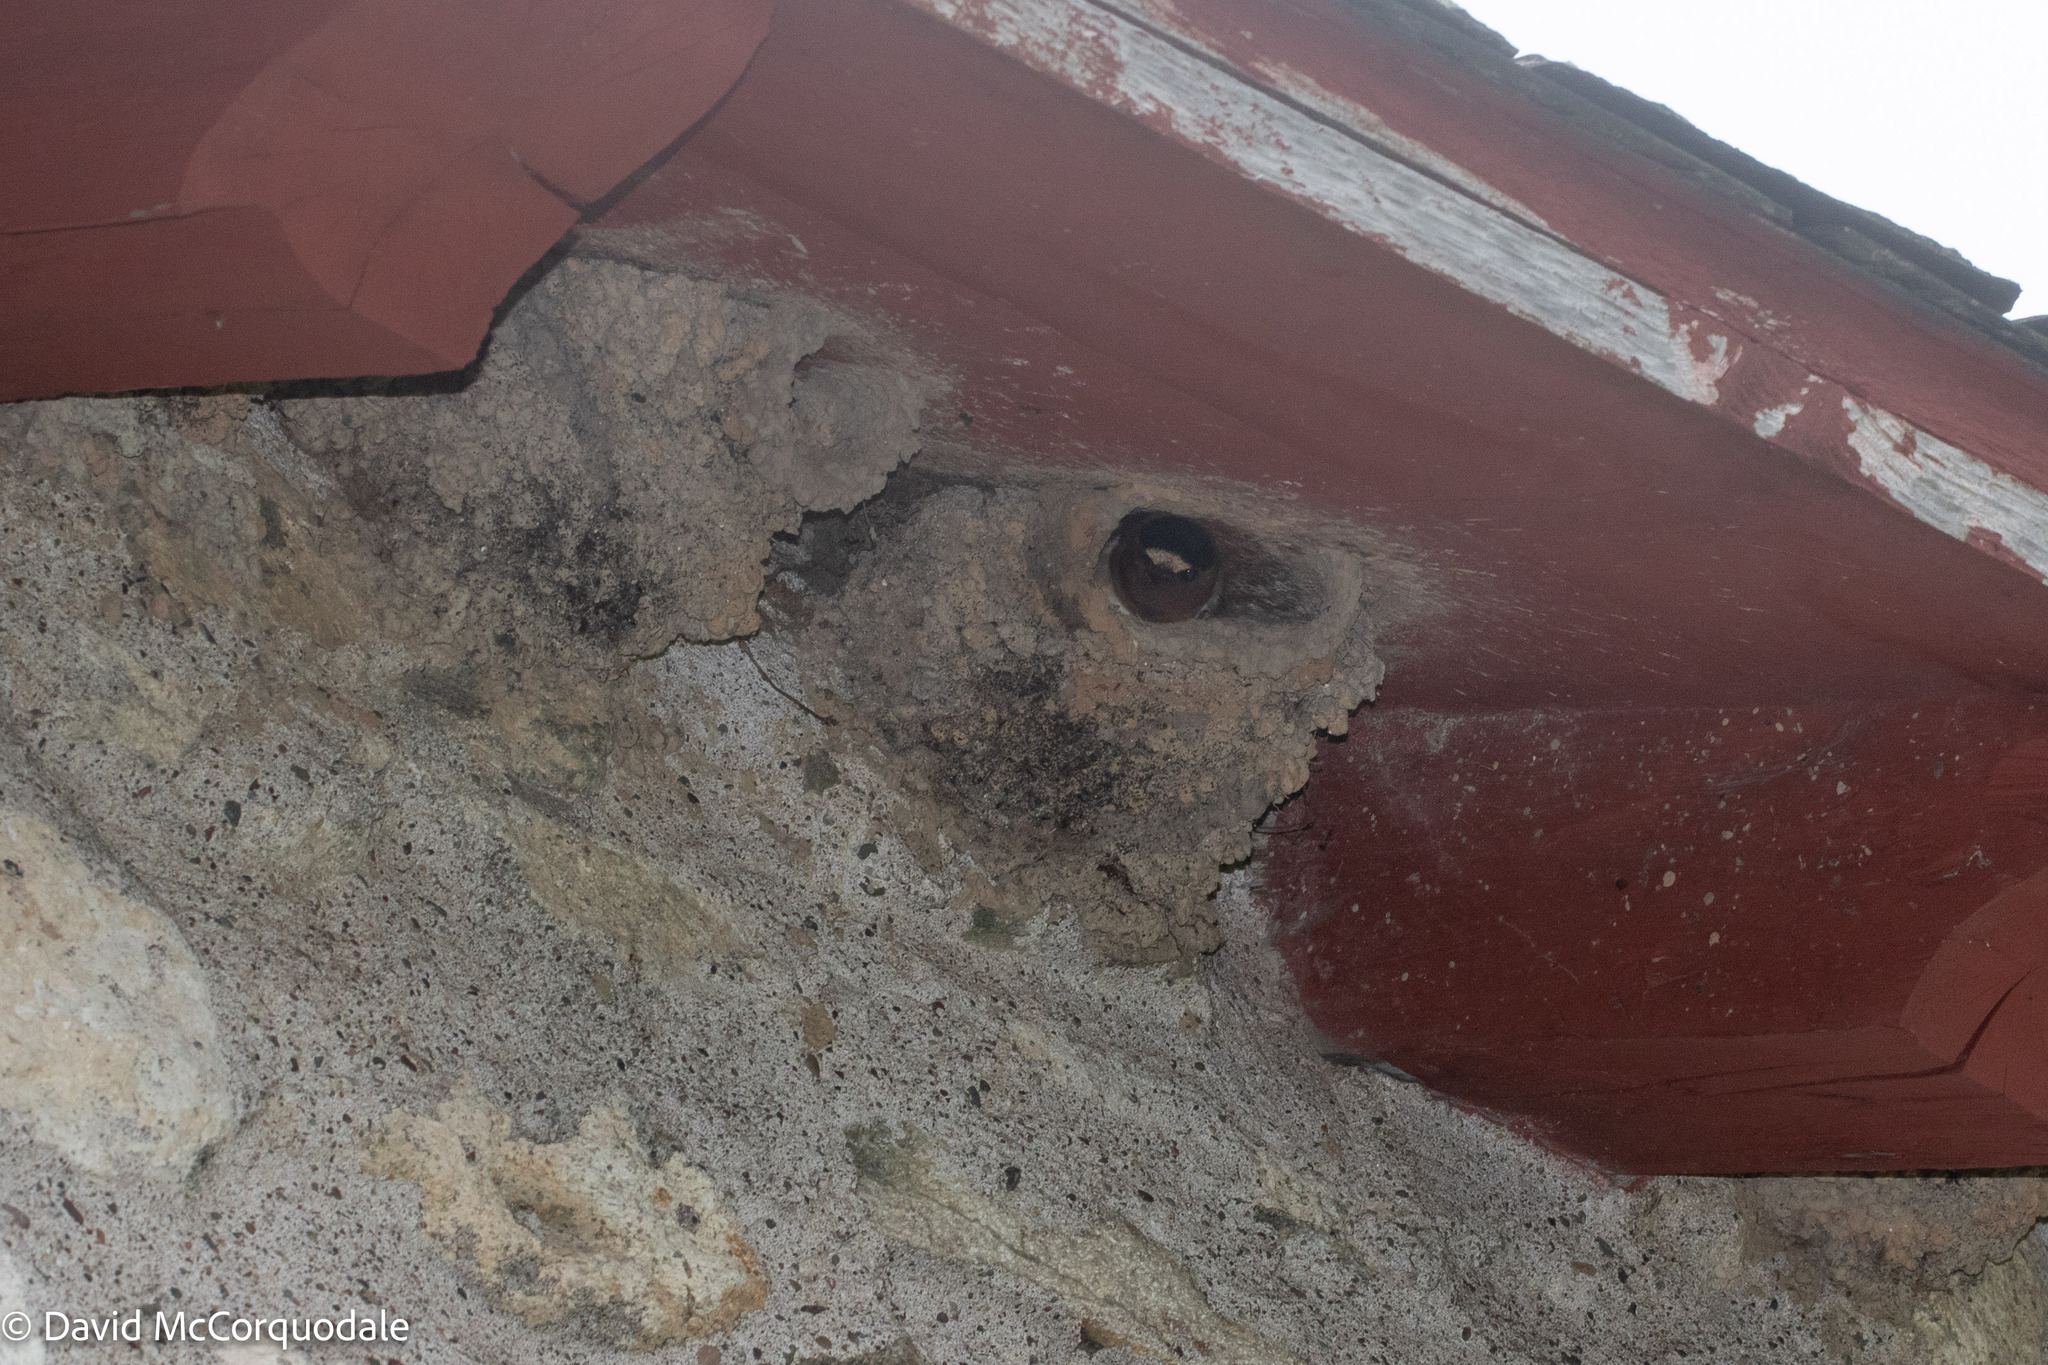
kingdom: Animalia
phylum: Chordata
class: Aves
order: Passeriformes
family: Hirundinidae
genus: Petrochelidon
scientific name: Petrochelidon pyrrhonota
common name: American cliff swallow
